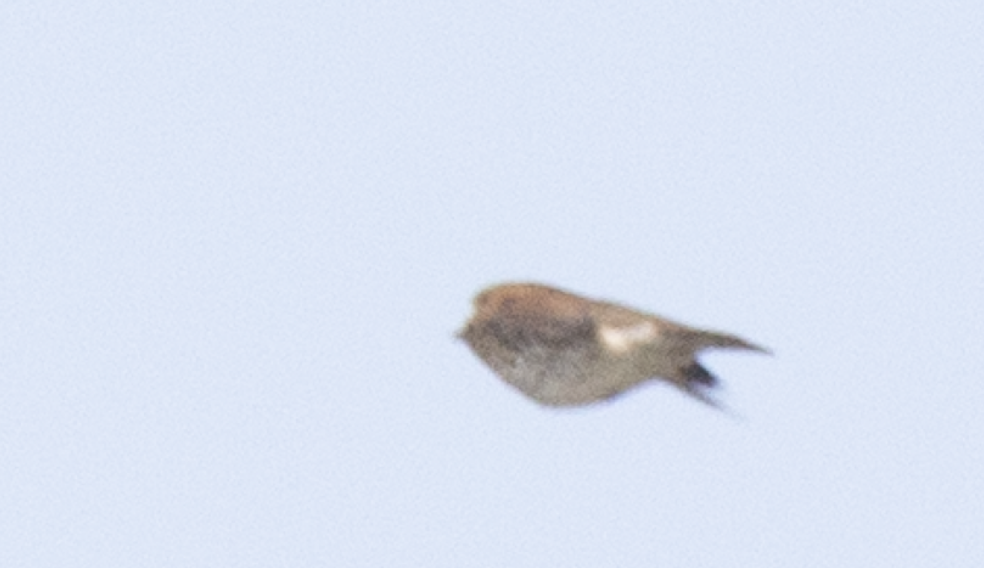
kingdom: Animalia
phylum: Chordata
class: Aves
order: Passeriformes
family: Turdidae
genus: Turdus
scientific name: Turdus philomelos
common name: Song thrush
